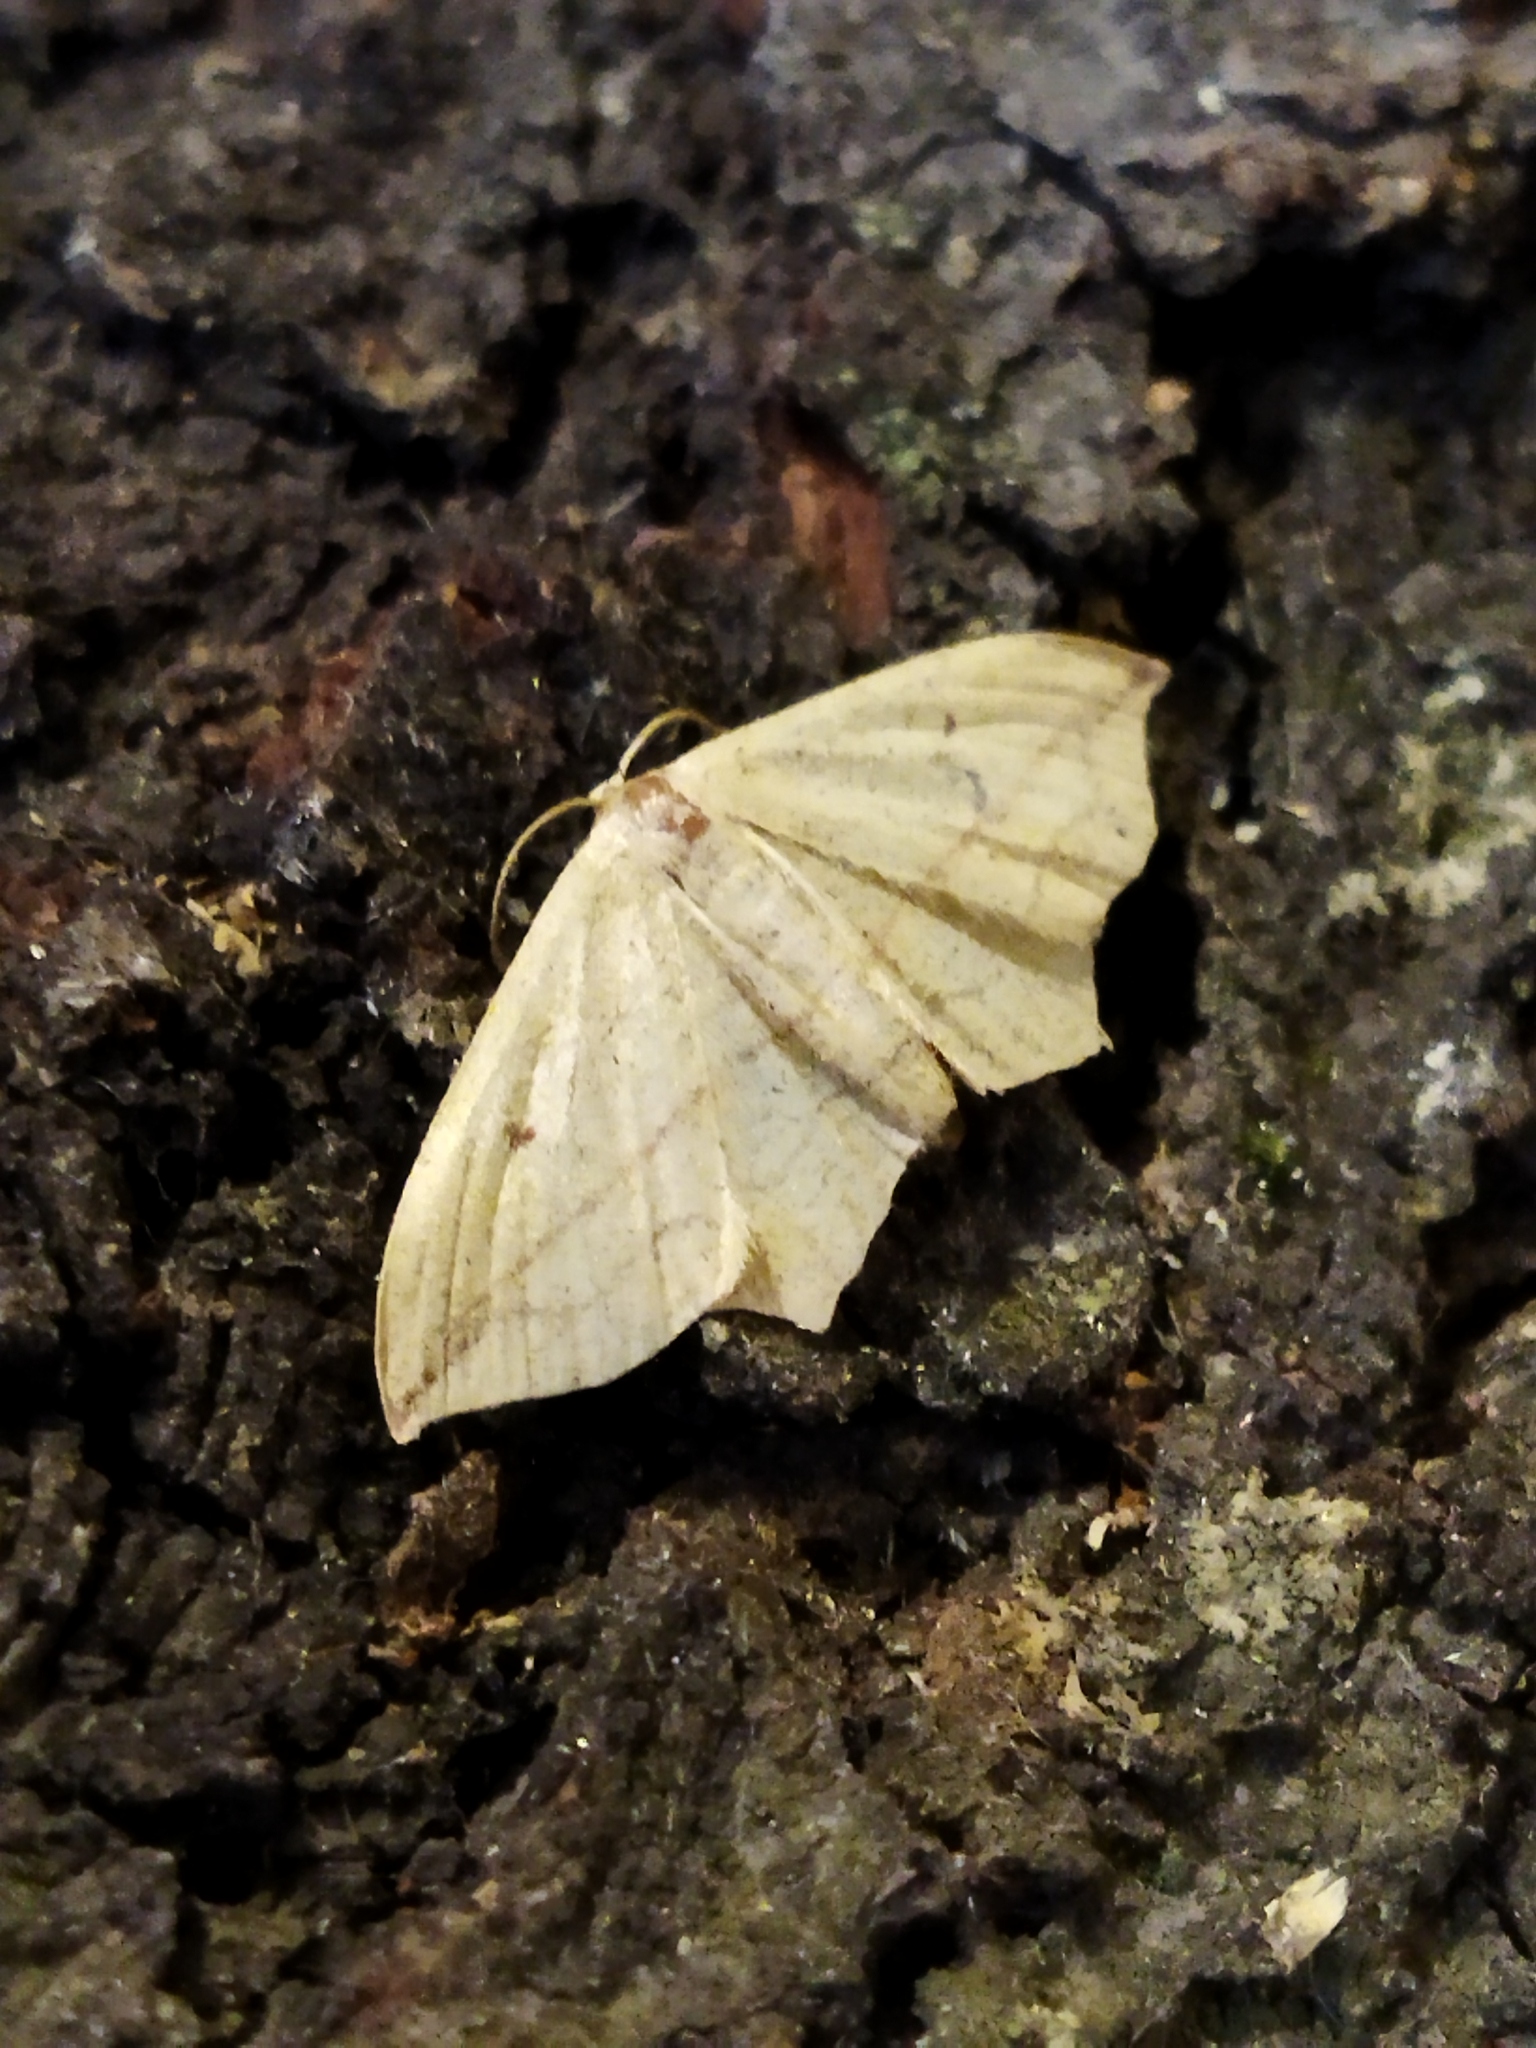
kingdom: Animalia
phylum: Arthropoda
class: Insecta
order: Lepidoptera
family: Geometridae
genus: Timandra
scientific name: Timandra comae
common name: Blood-vein
